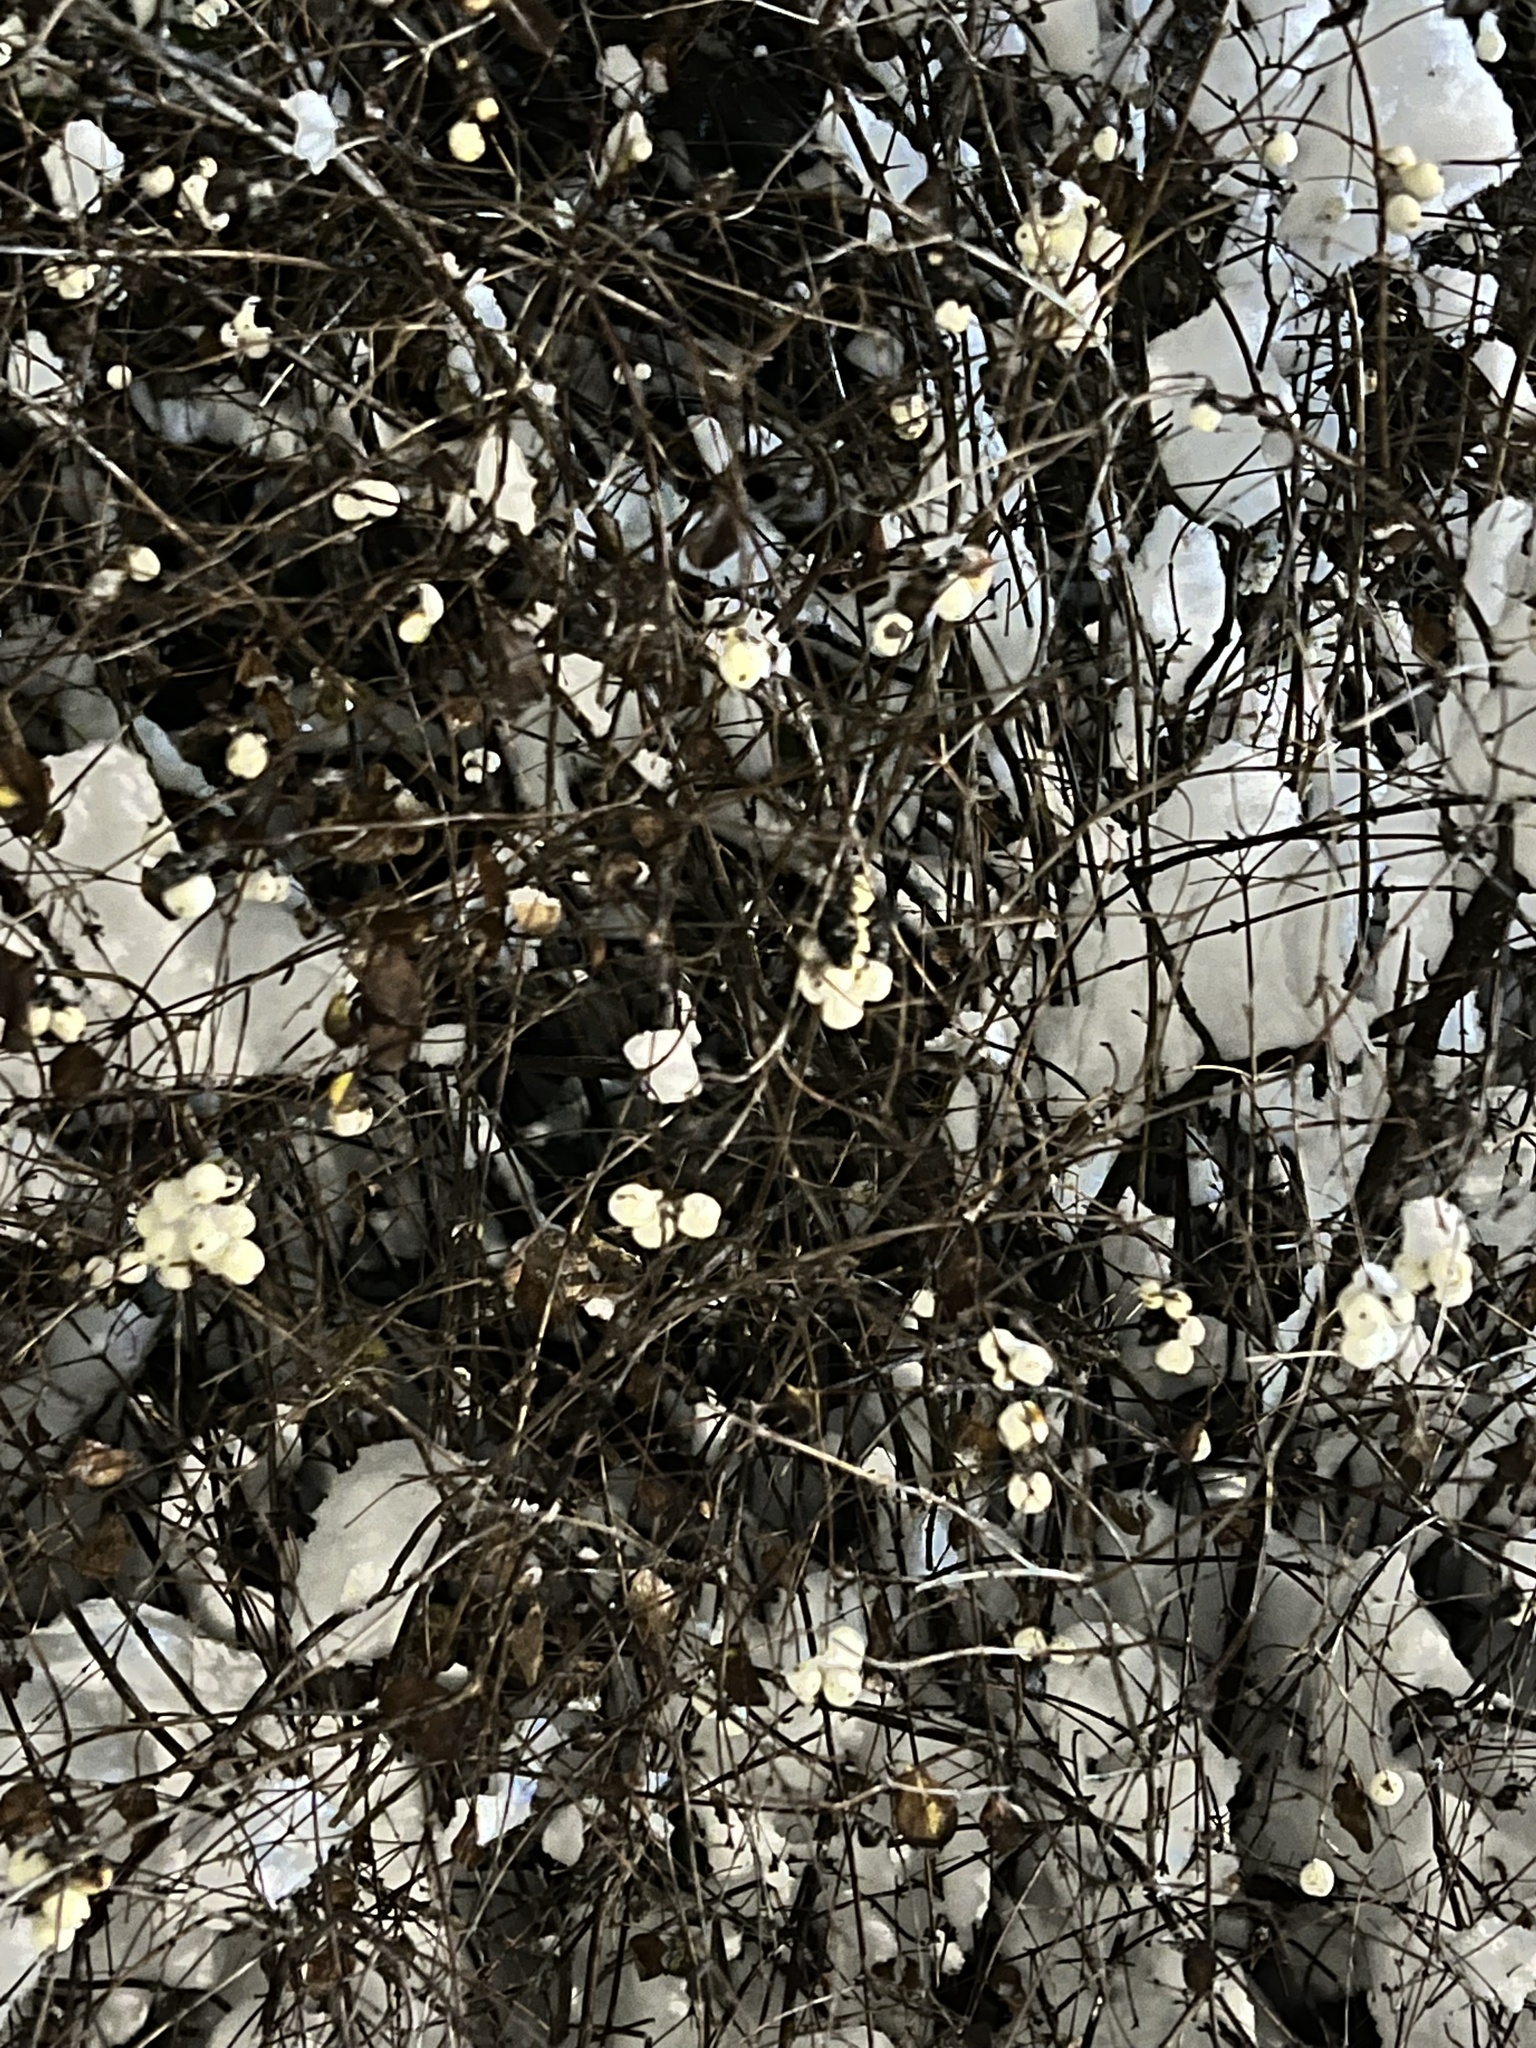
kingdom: Plantae
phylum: Tracheophyta
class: Magnoliopsida
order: Dipsacales
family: Caprifoliaceae
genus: Symphoricarpos
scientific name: Symphoricarpos albus
